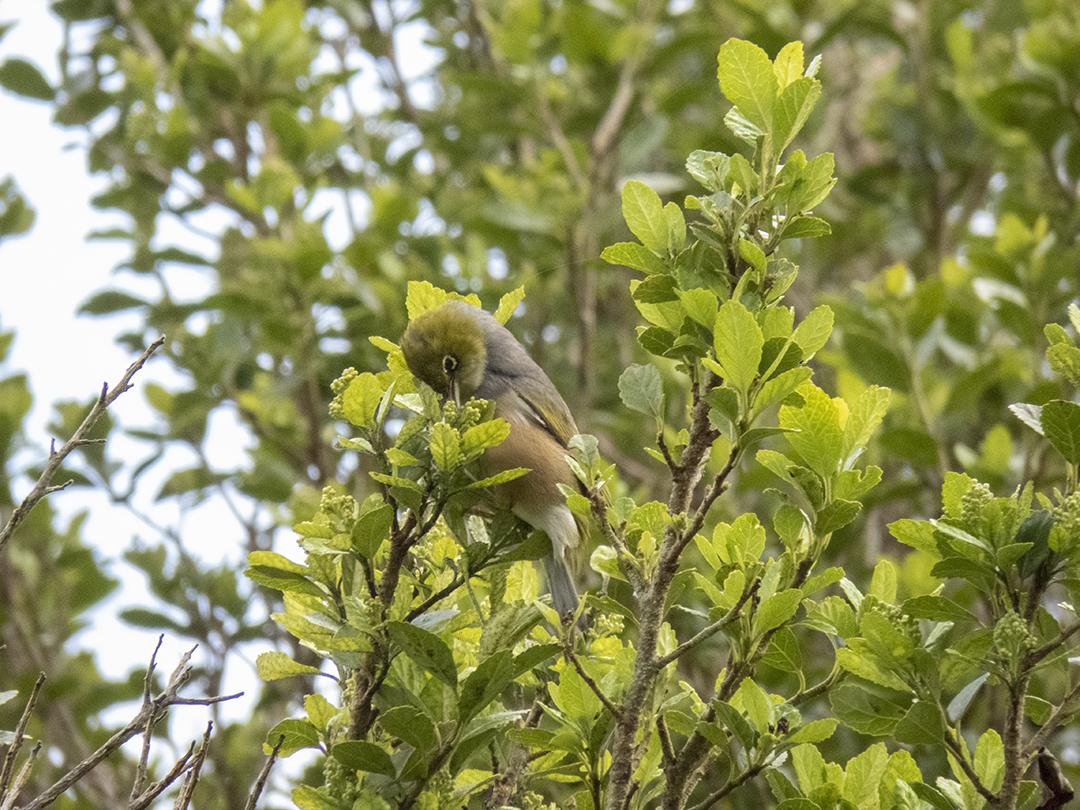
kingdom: Animalia
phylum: Chordata
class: Aves
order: Passeriformes
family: Zosteropidae
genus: Zosterops
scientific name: Zosterops lateralis
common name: Silvereye
